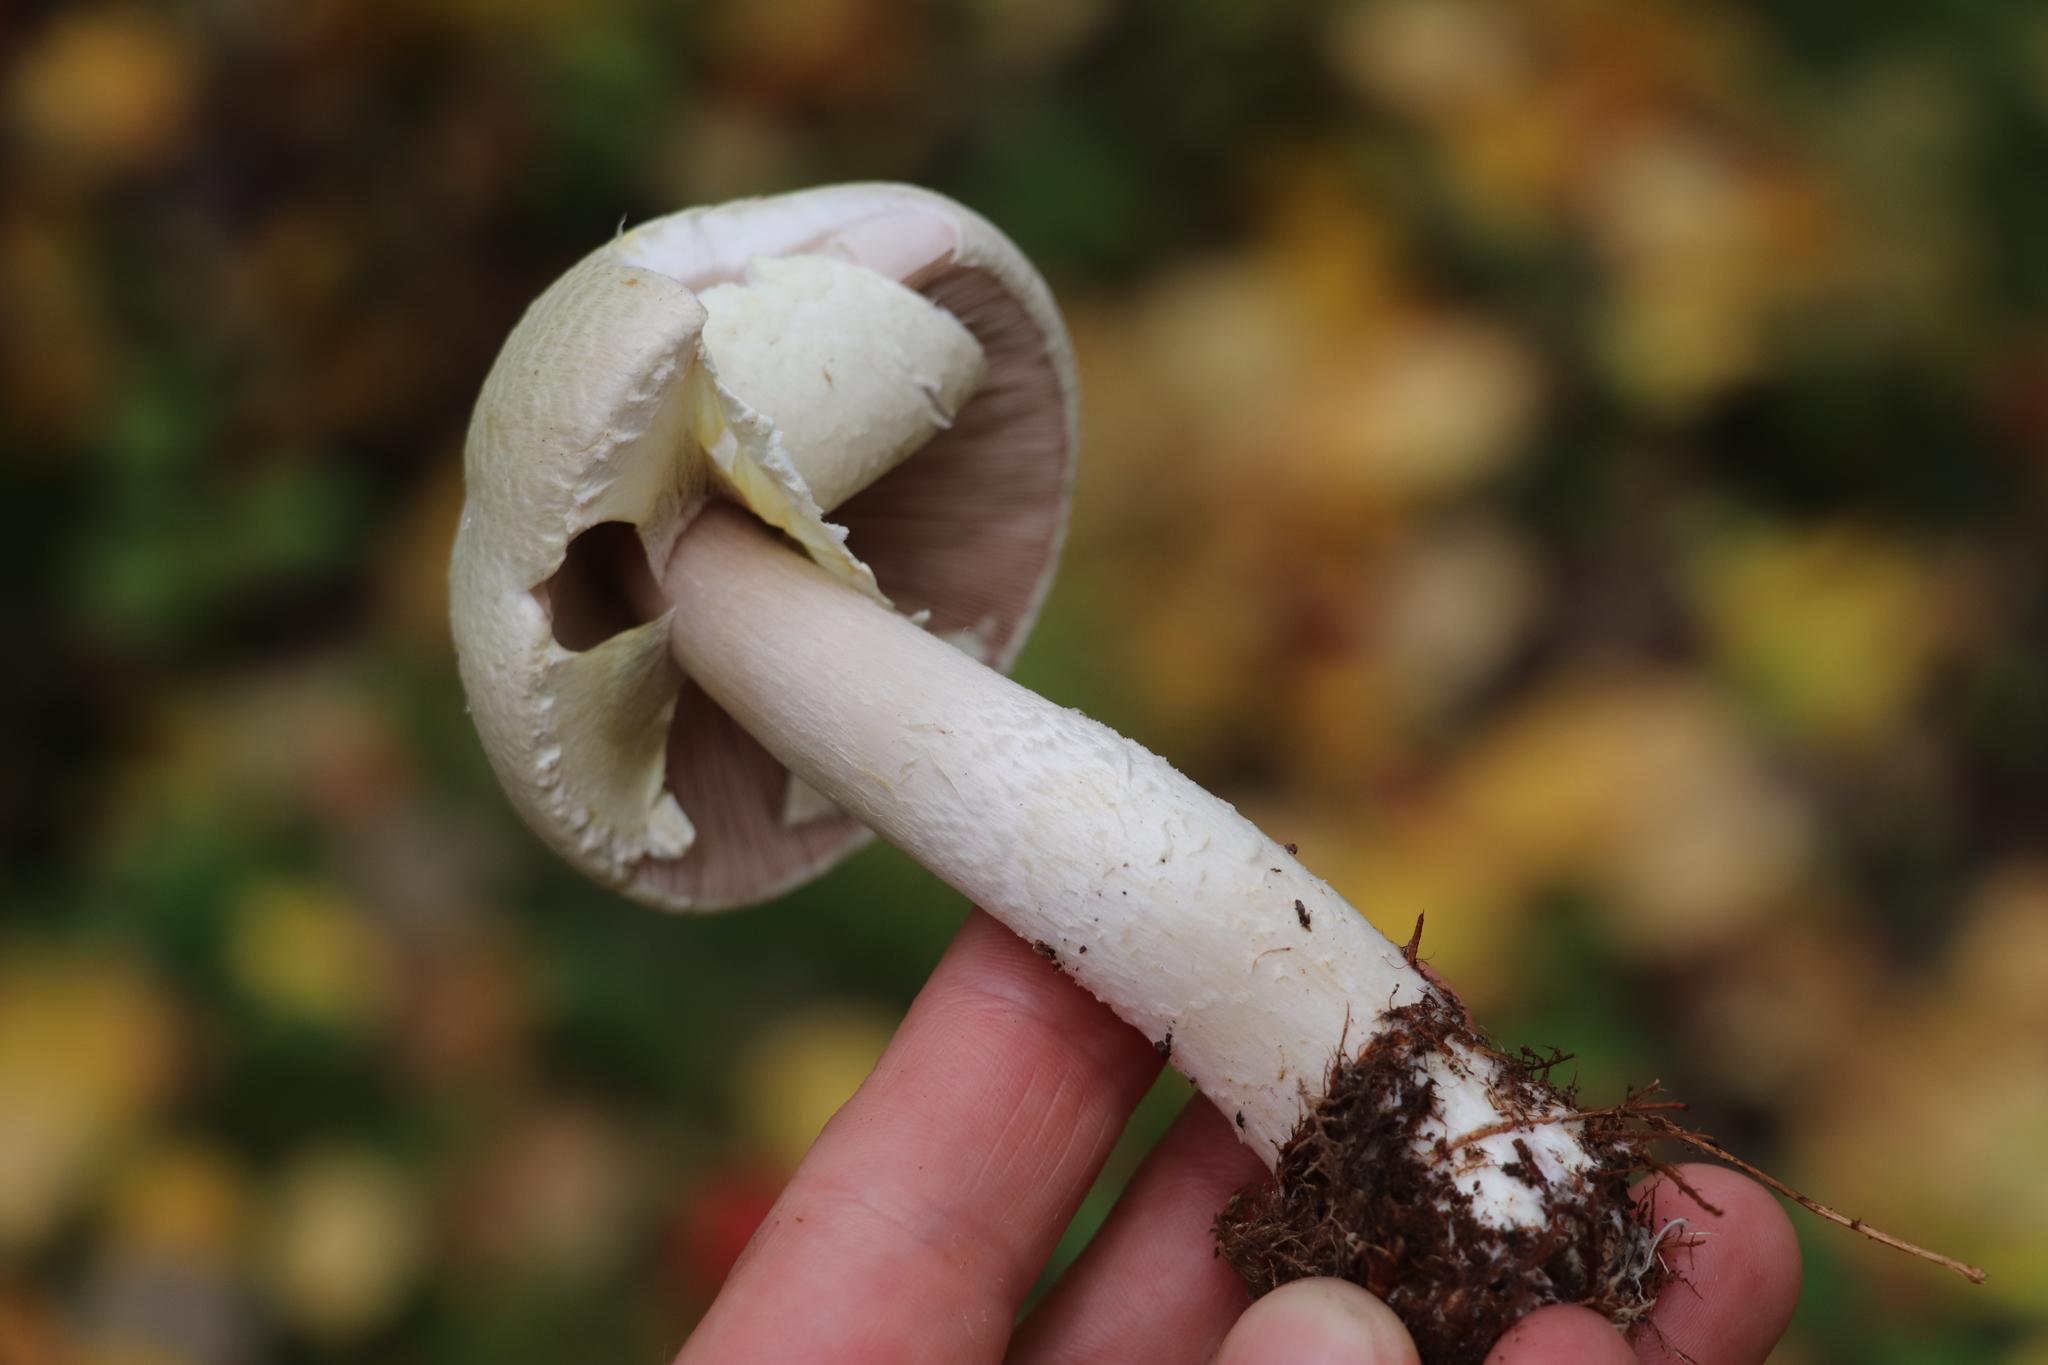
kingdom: Fungi
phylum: Basidiomycota
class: Agaricomycetes
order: Agaricales
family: Agaricaceae
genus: Agaricus
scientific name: Agaricus sylvicola
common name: Wood mushroom
